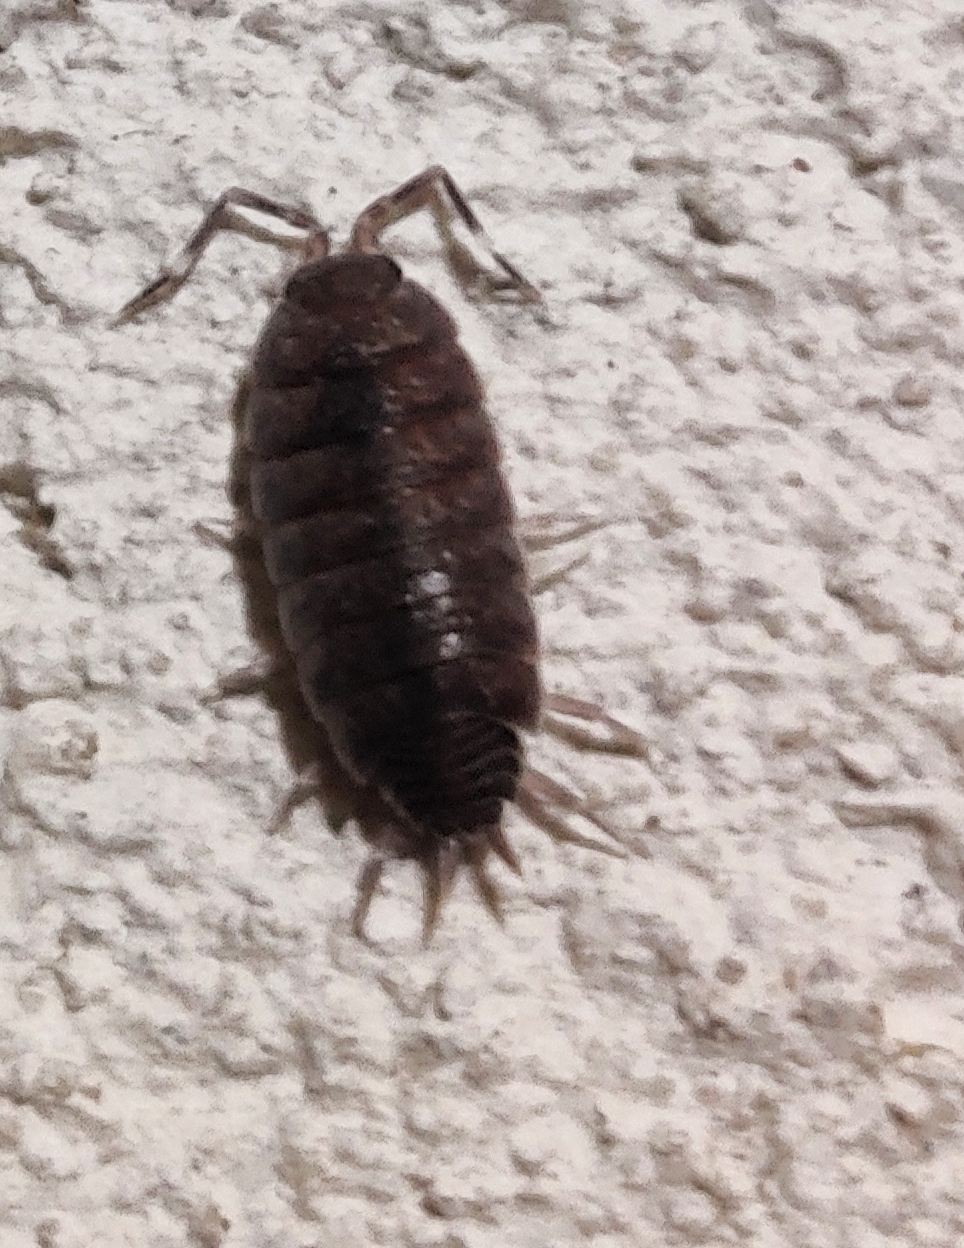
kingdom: Animalia
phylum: Arthropoda
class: Malacostraca
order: Isopoda
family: Porcellionidae
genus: Porcellionides
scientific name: Porcellionides pruinosus
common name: Plum woodlouse
